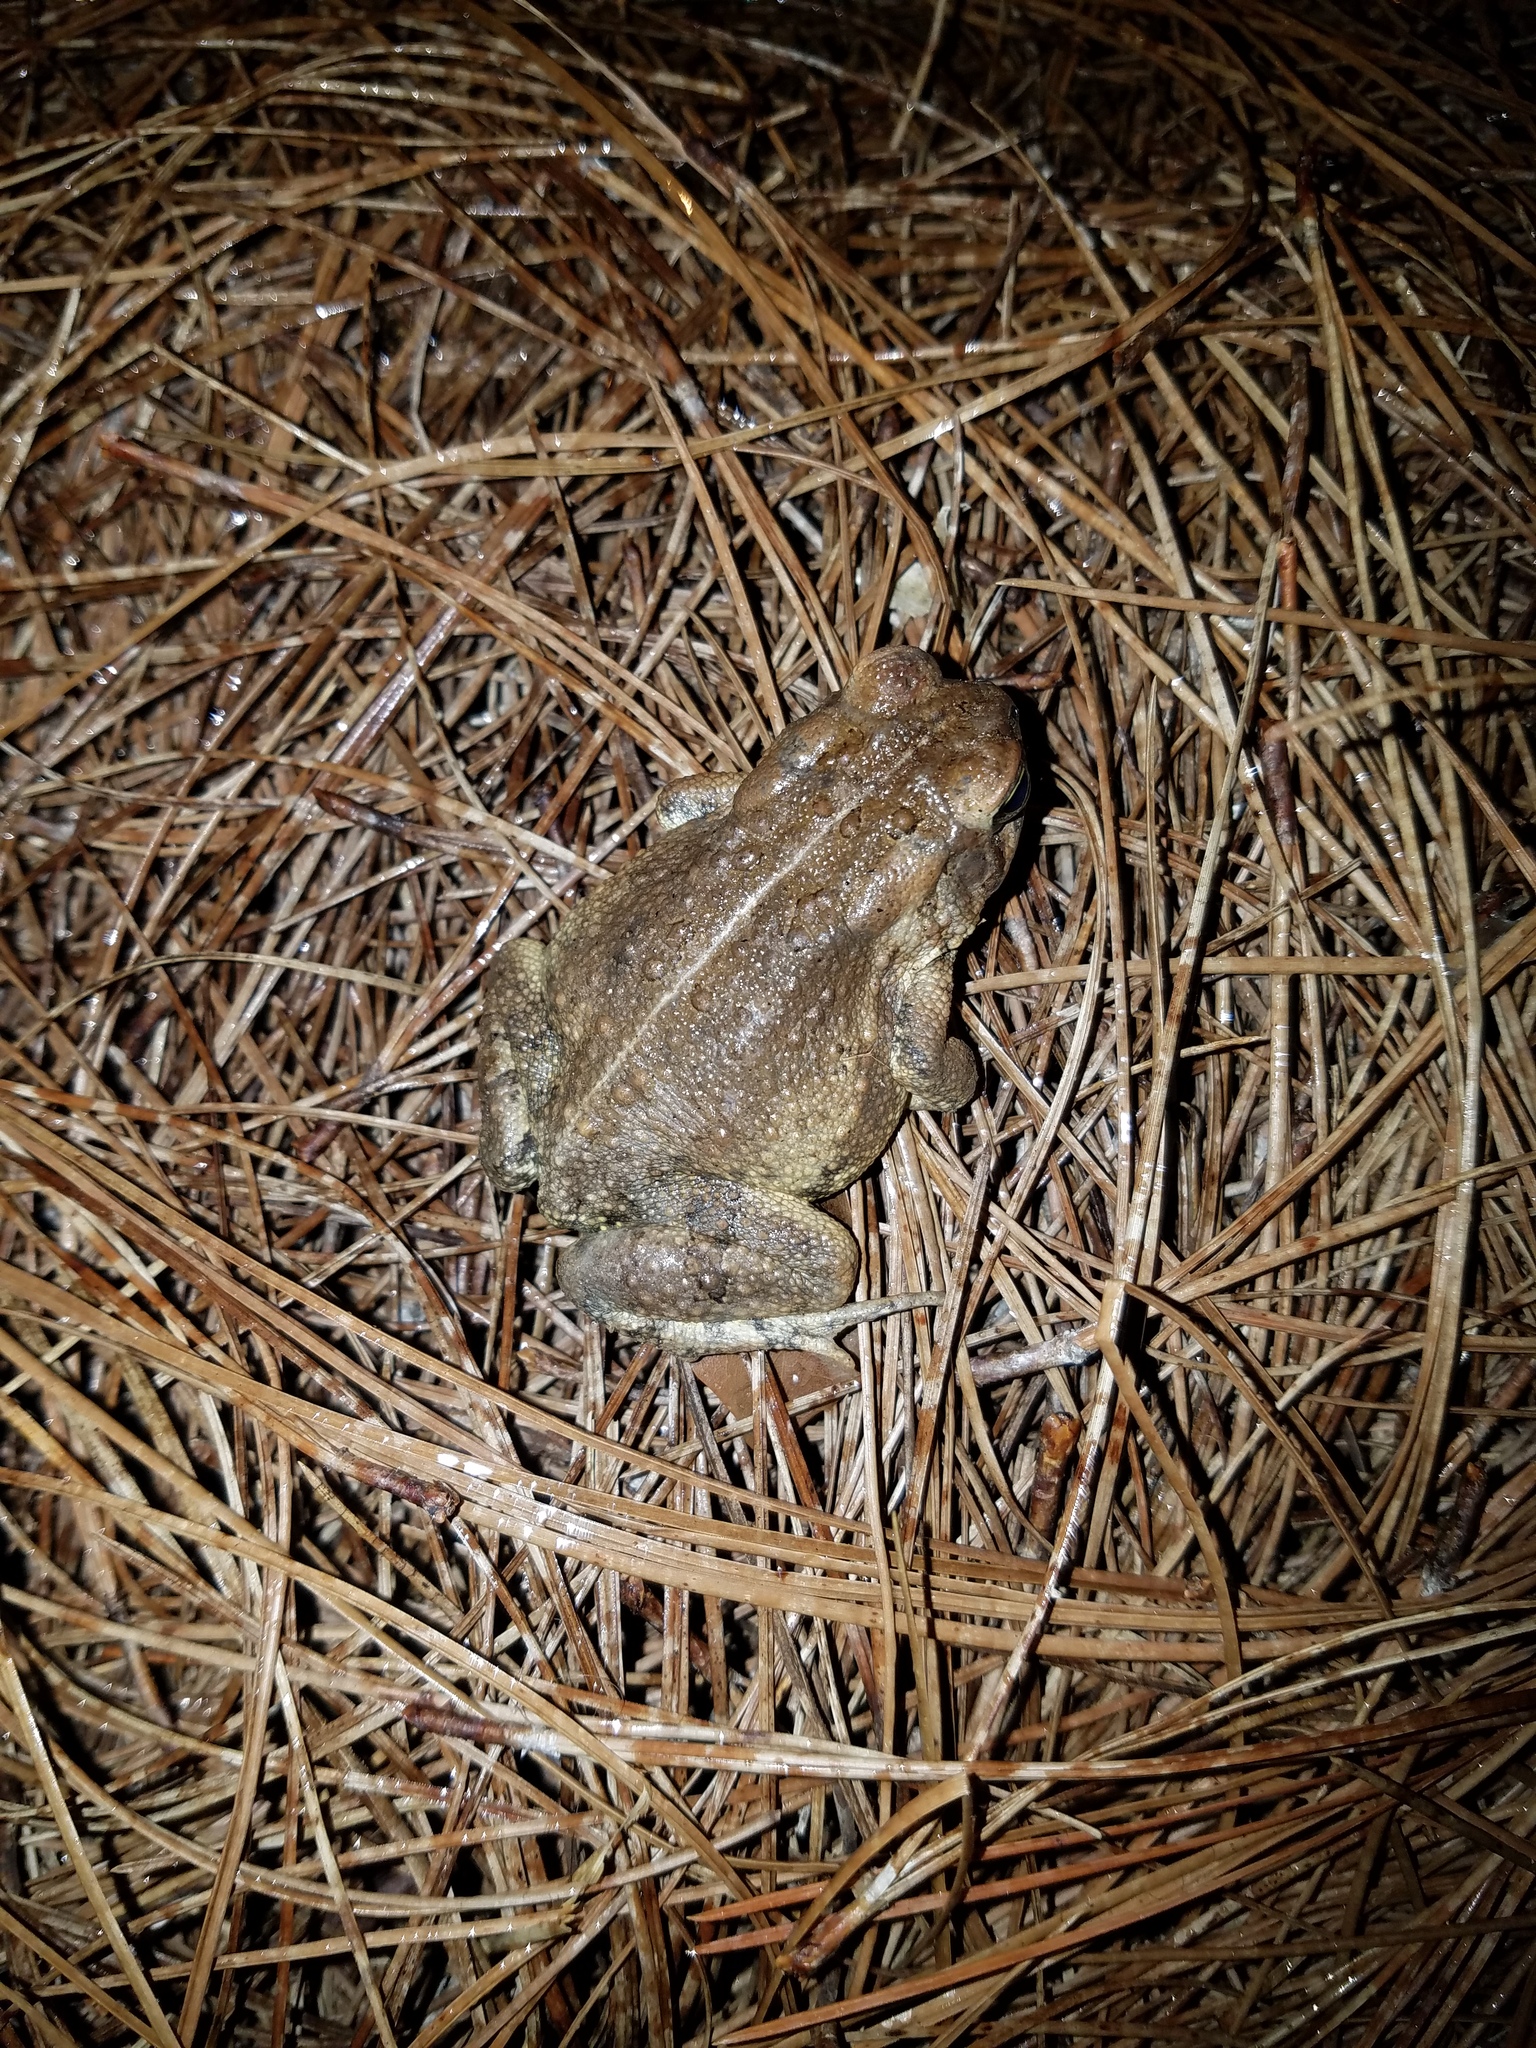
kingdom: Animalia
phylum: Chordata
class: Amphibia
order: Anura
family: Bufonidae
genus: Anaxyrus
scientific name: Anaxyrus fowleri
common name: Fowler's toad
